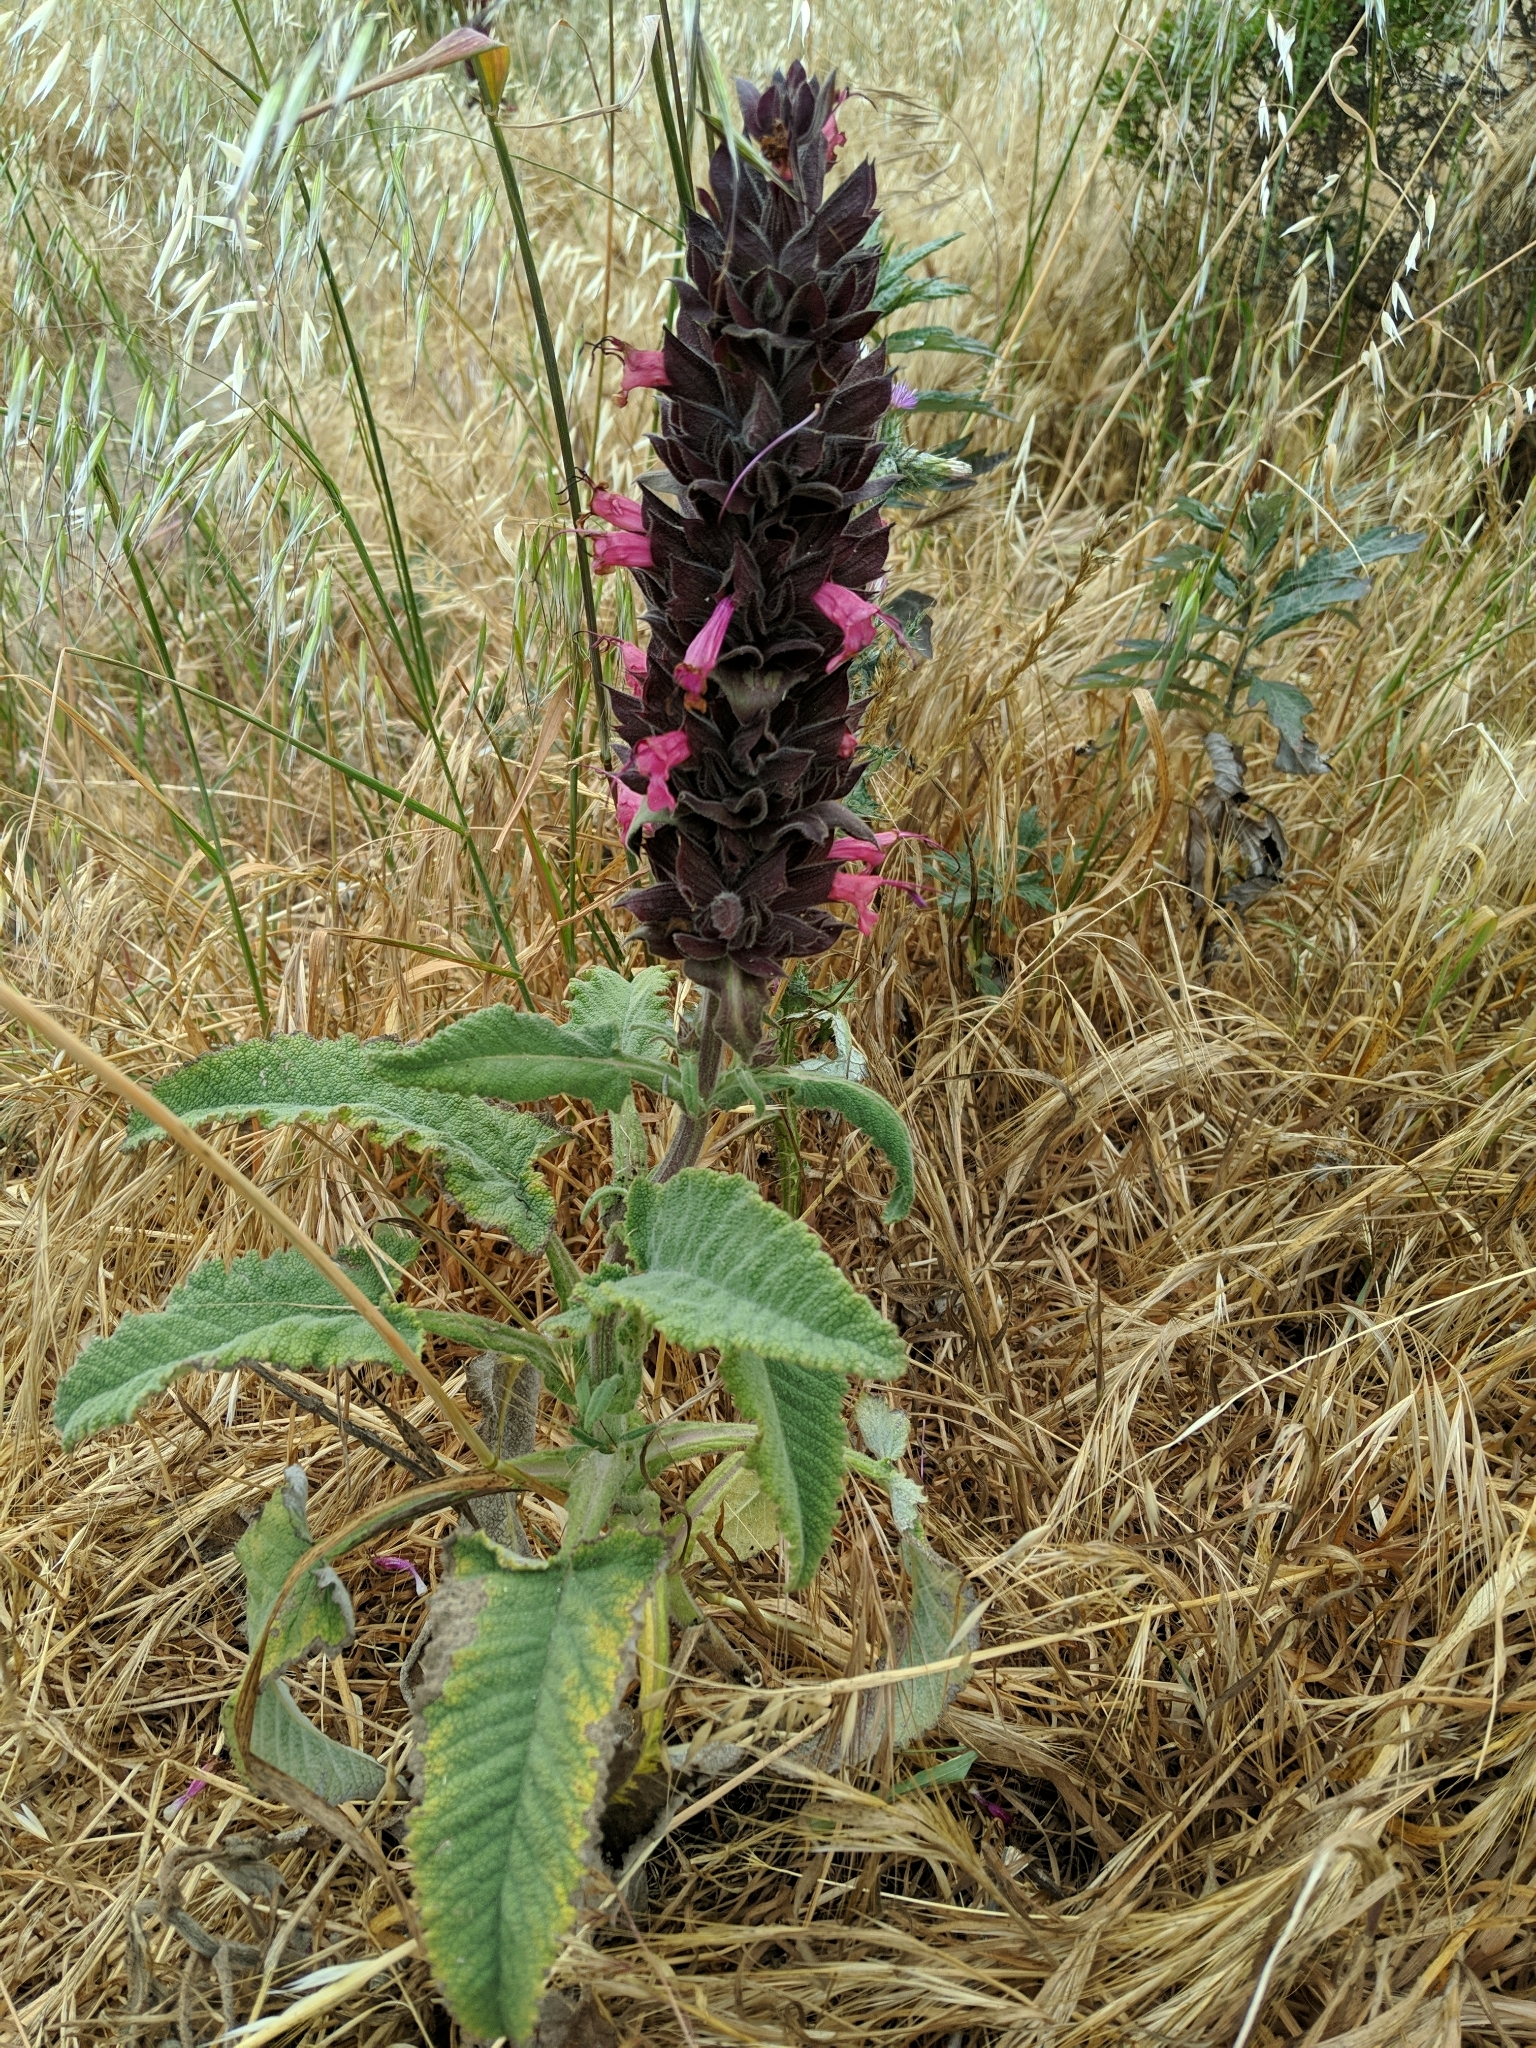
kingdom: Plantae
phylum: Tracheophyta
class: Magnoliopsida
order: Lamiales
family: Lamiaceae
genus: Salvia
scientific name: Salvia spathacea
